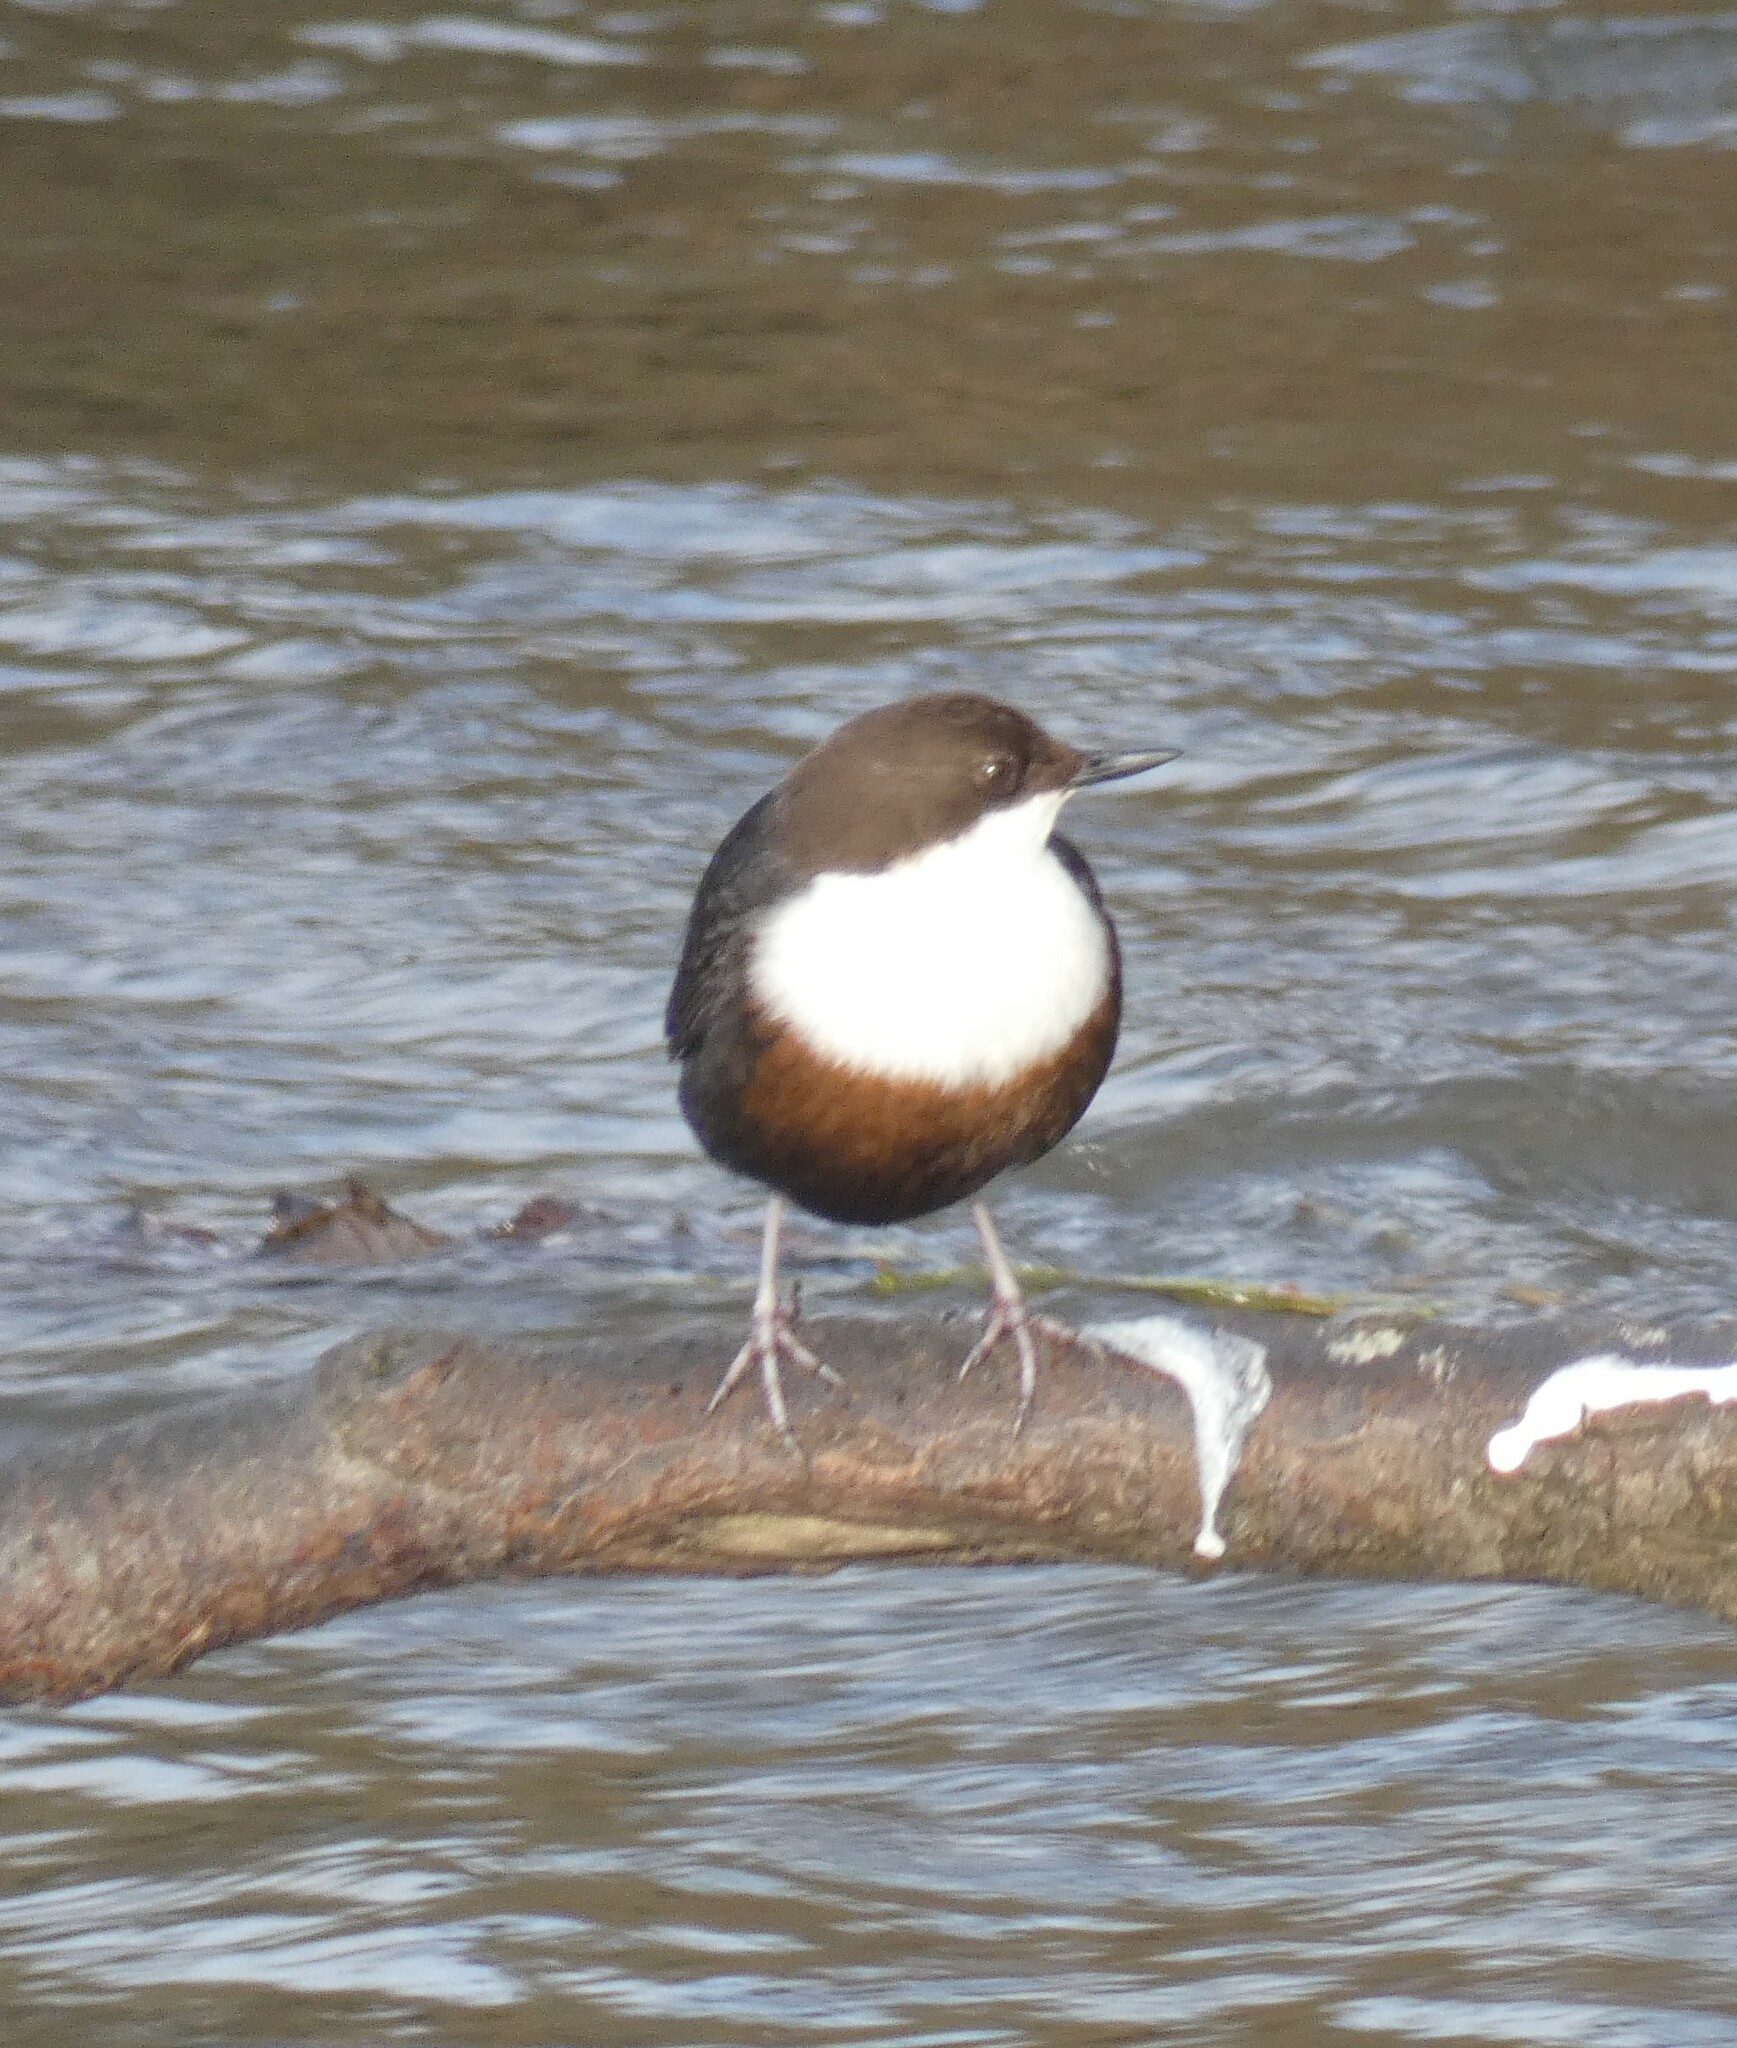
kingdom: Animalia
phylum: Chordata
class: Aves
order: Passeriformes
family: Cinclidae
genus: Cinclus
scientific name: Cinclus cinclus
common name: White-throated dipper
